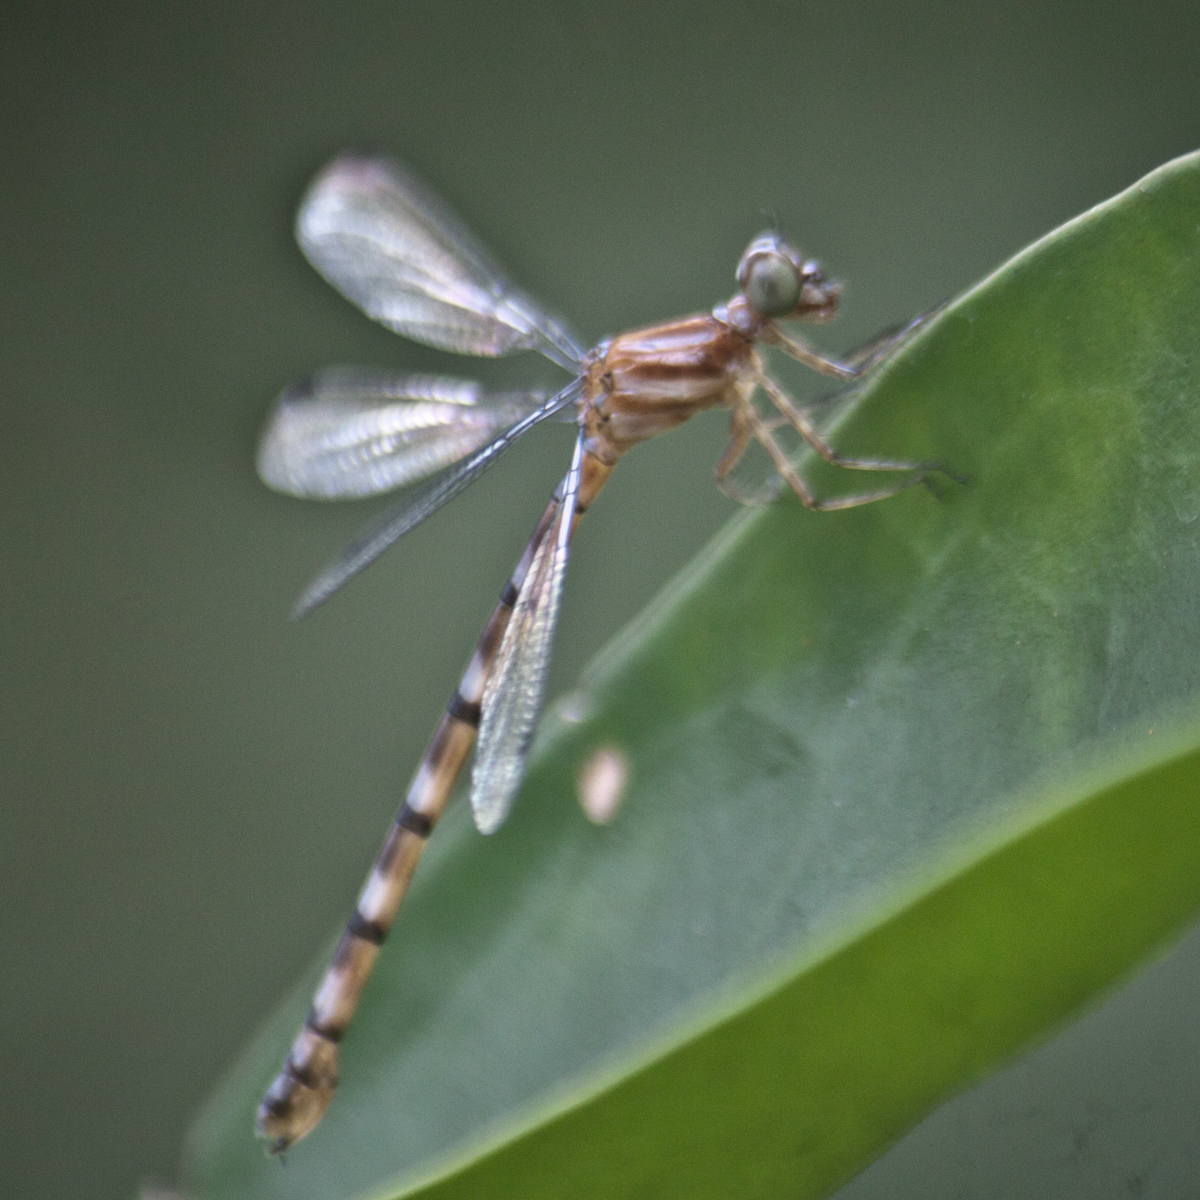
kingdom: Animalia
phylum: Arthropoda
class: Insecta
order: Odonata
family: Philosinidae
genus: Rhinagrion
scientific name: Rhinagrion viridatum
